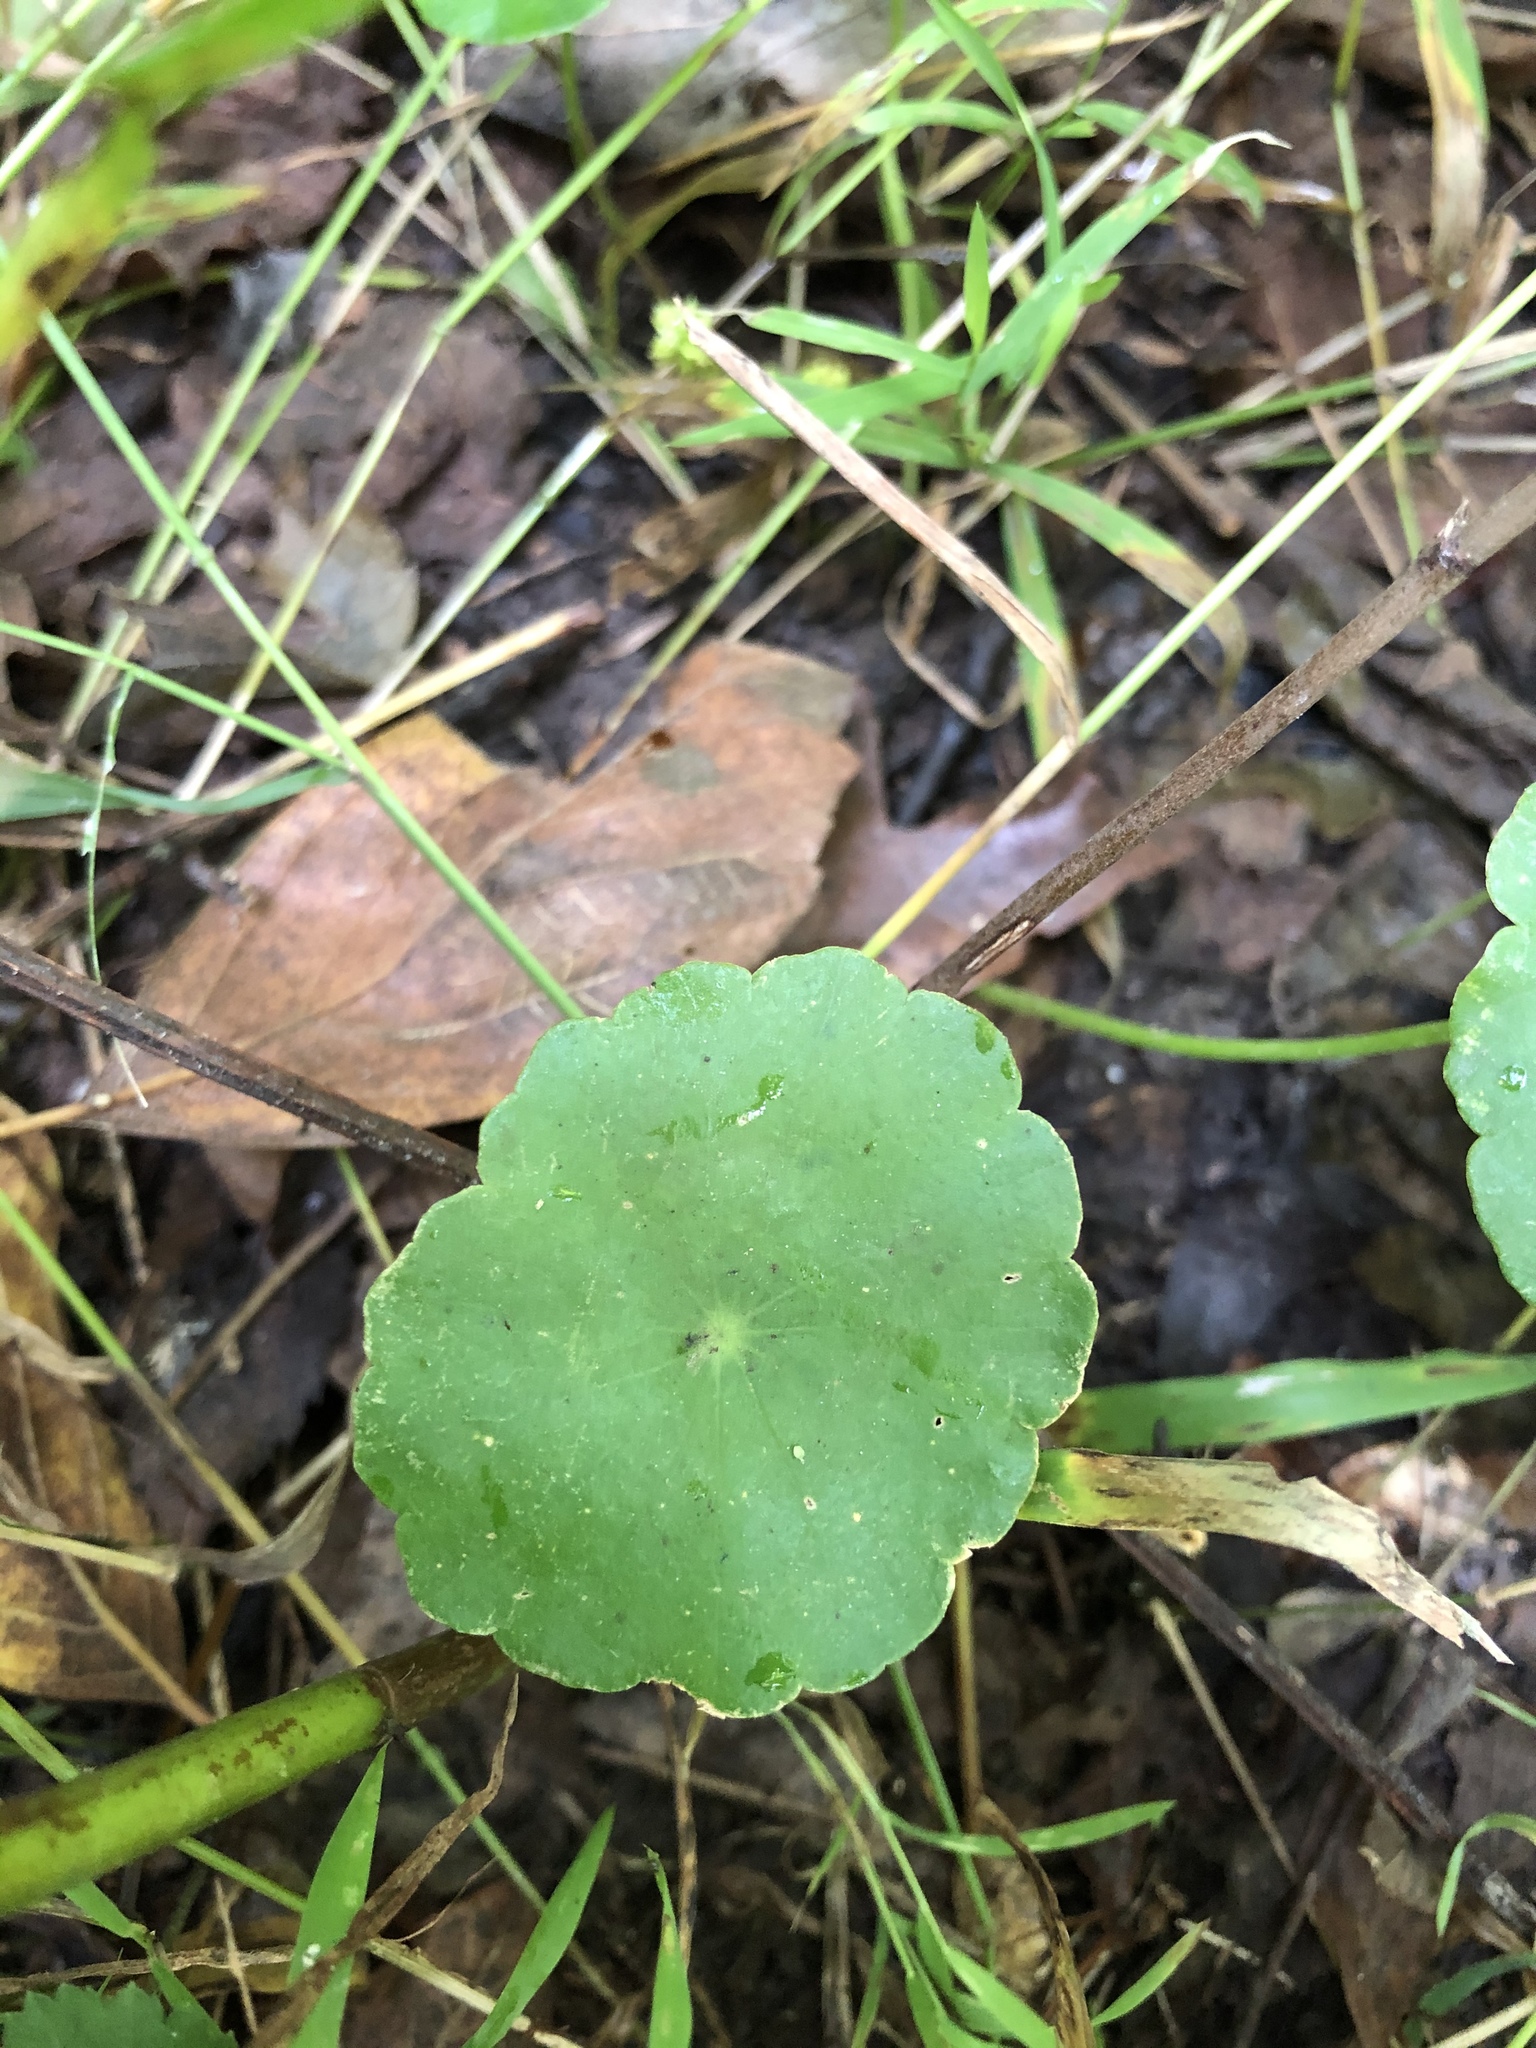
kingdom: Plantae
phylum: Tracheophyta
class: Magnoliopsida
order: Apiales
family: Araliaceae
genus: Hydrocotyle
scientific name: Hydrocotyle verticillata
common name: Whorled marshpennywort
